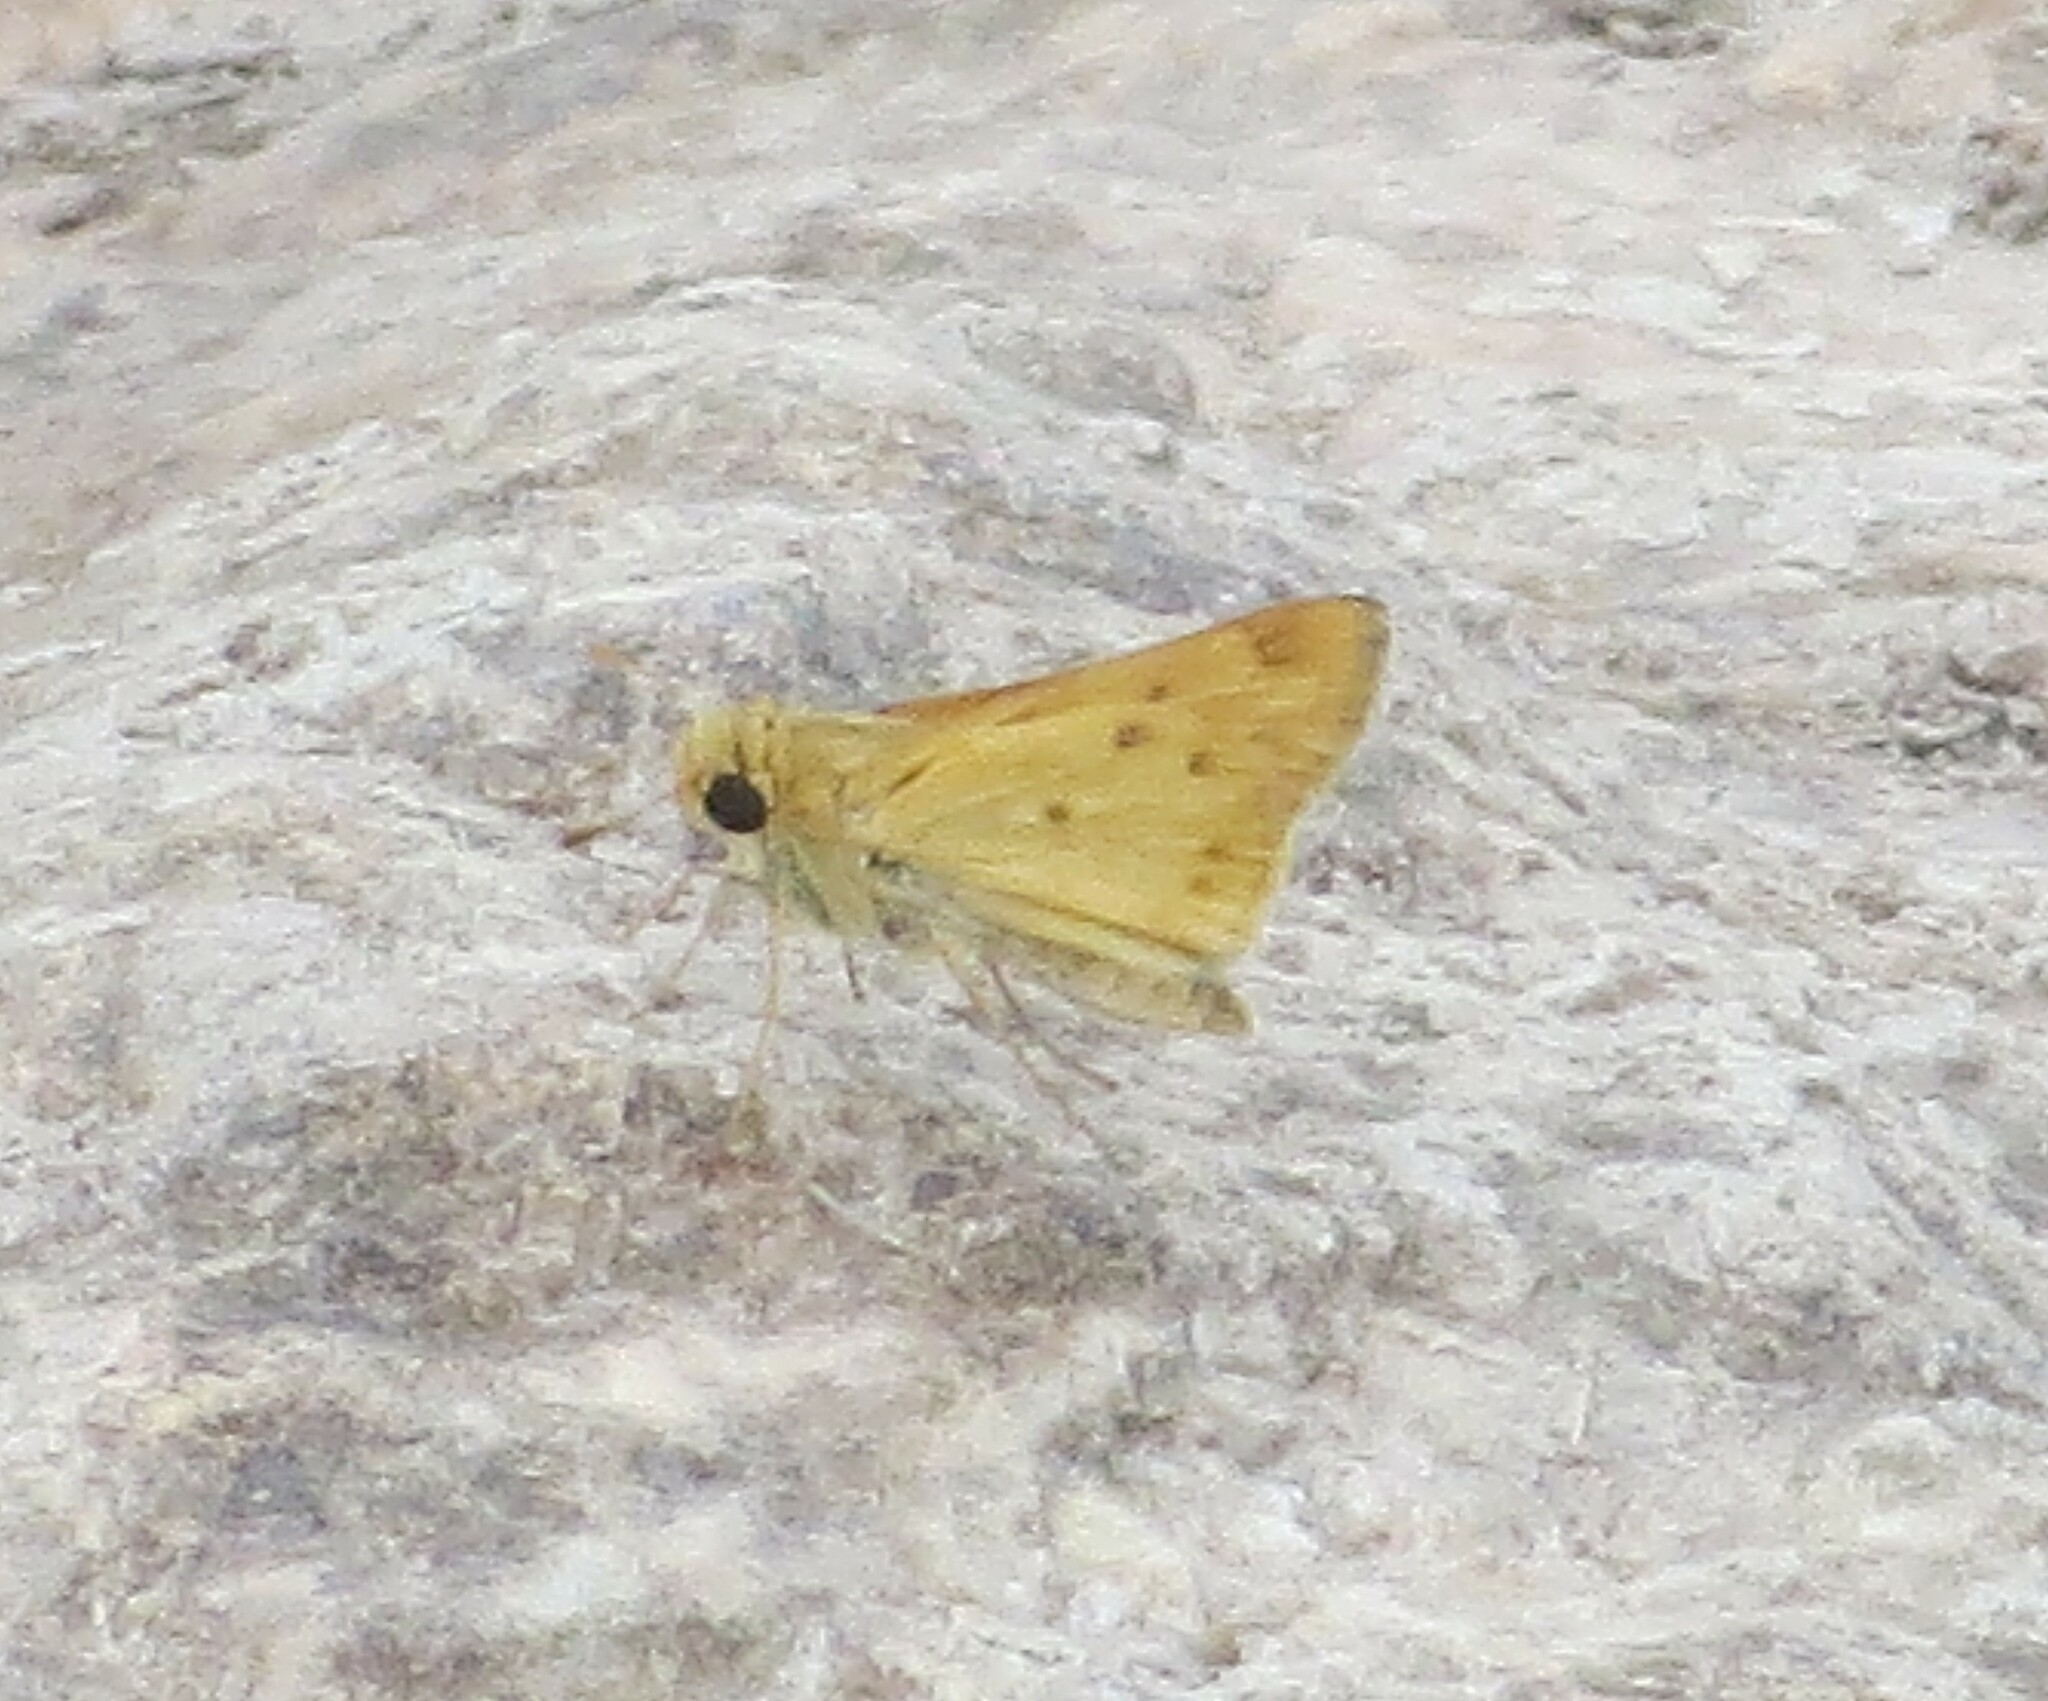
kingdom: Animalia
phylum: Arthropoda
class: Insecta
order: Lepidoptera
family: Hesperiidae
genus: Hylephila
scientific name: Hylephila phyleus
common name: Fiery skipper
